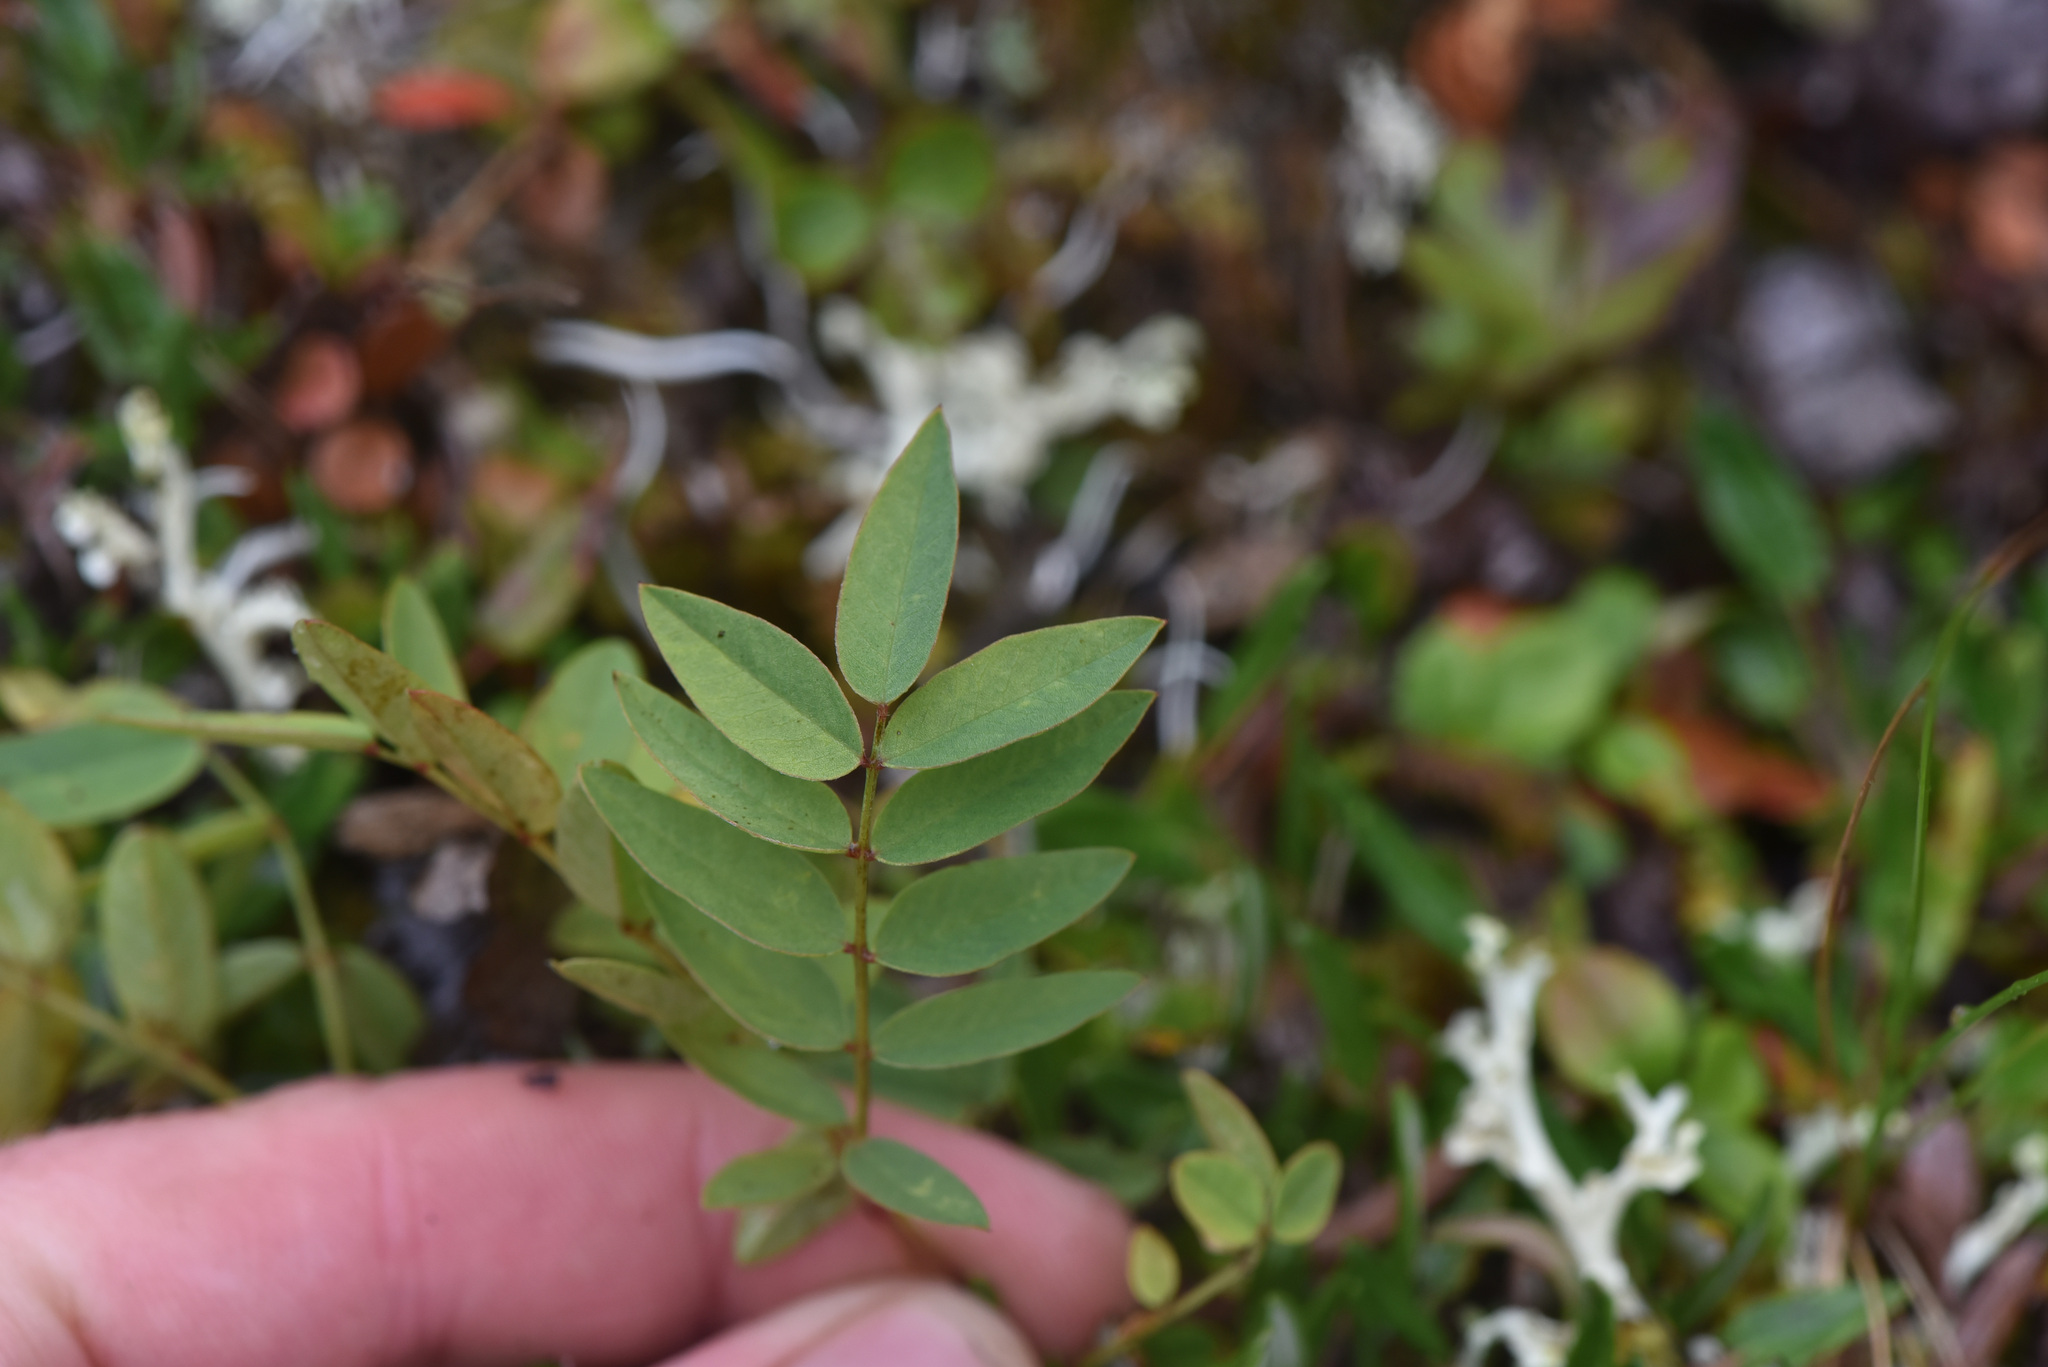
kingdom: Plantae
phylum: Tracheophyta
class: Magnoliopsida
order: Fabales
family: Fabaceae
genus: Hedysarum
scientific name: Hedysarum alpinum
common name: Alpine sweet-vetch
